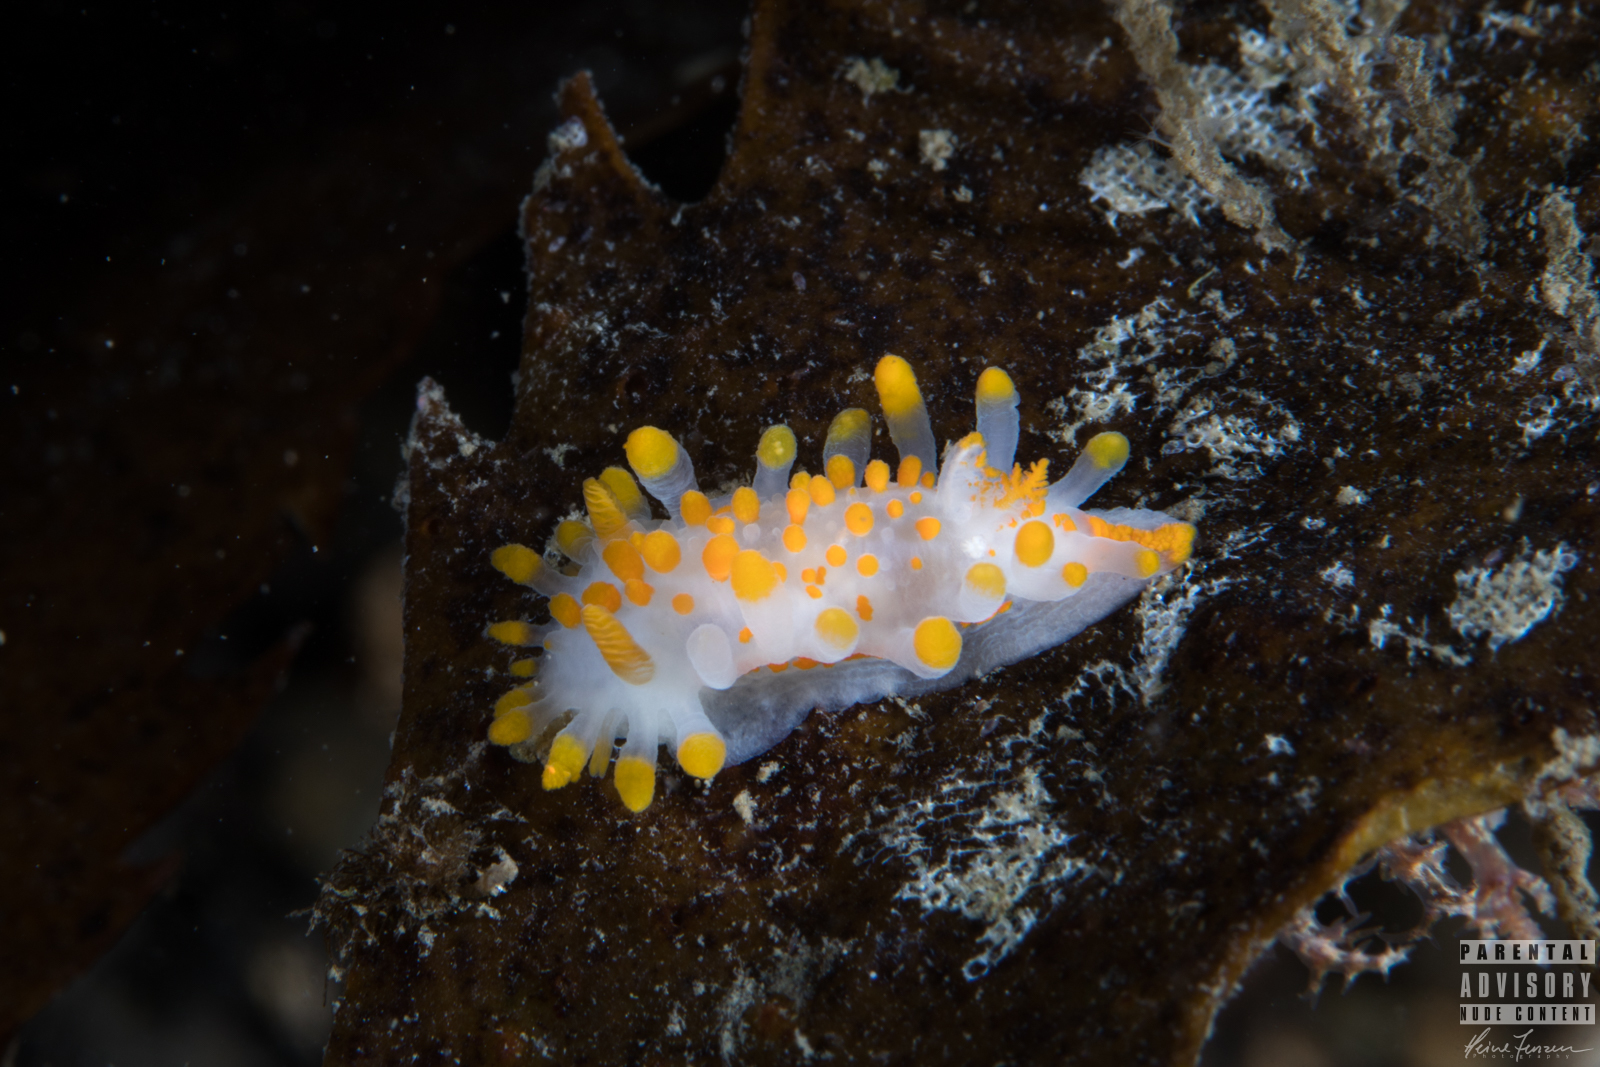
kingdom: Animalia
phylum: Mollusca
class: Gastropoda
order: Nudibranchia
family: Polyceridae
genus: Limacia
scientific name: Limacia clavigera
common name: Orange-clubbed sea slug
